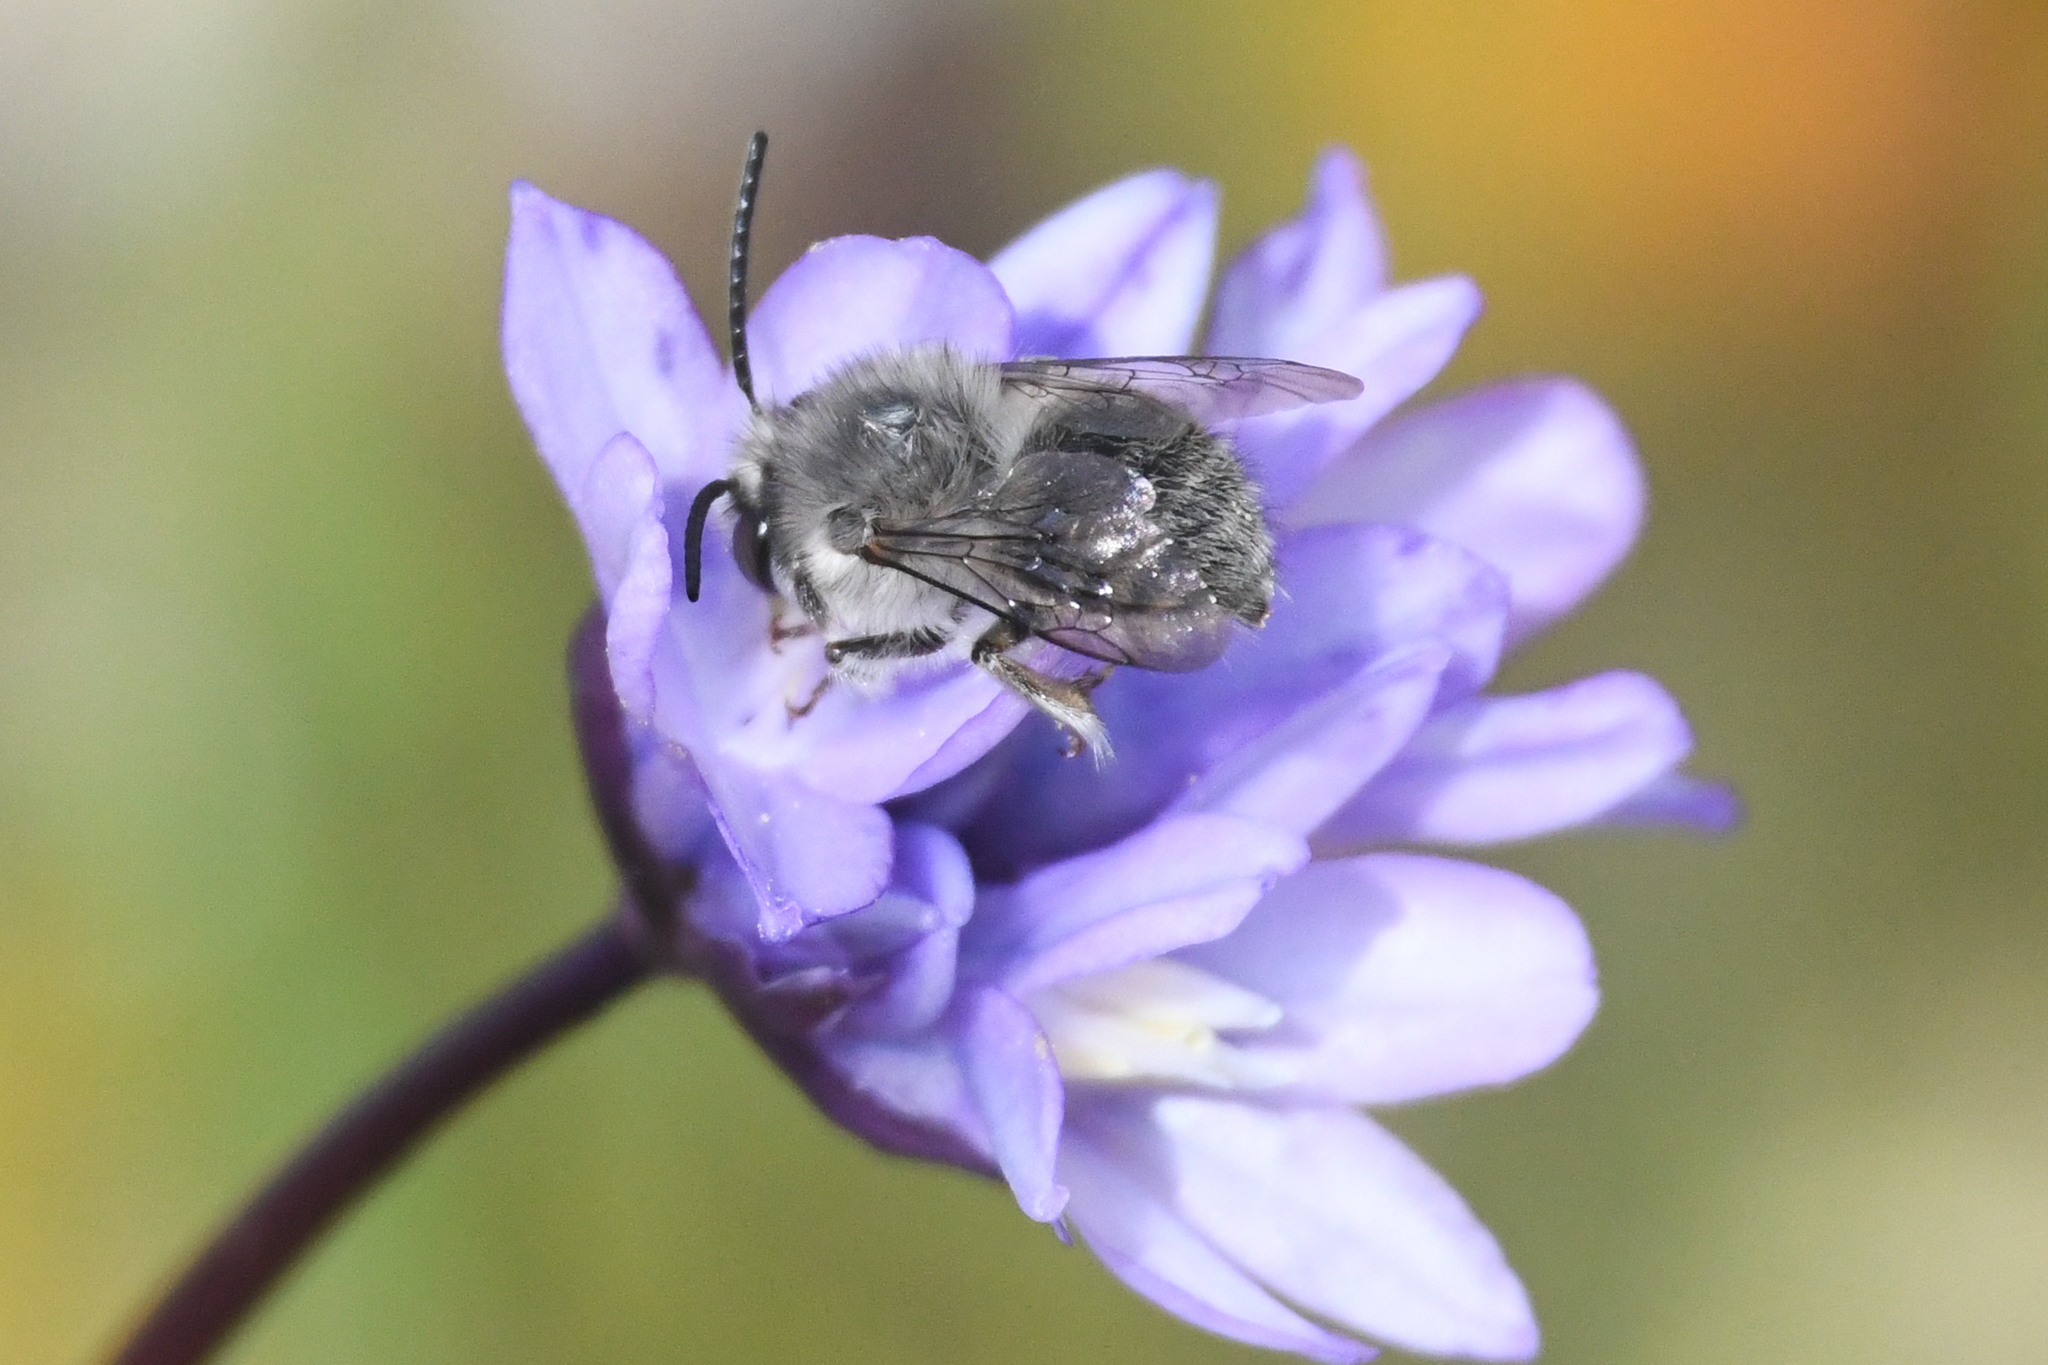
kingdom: Animalia
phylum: Arthropoda
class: Insecta
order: Hymenoptera
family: Apidae
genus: Habropoda
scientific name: Habropoda depressa
